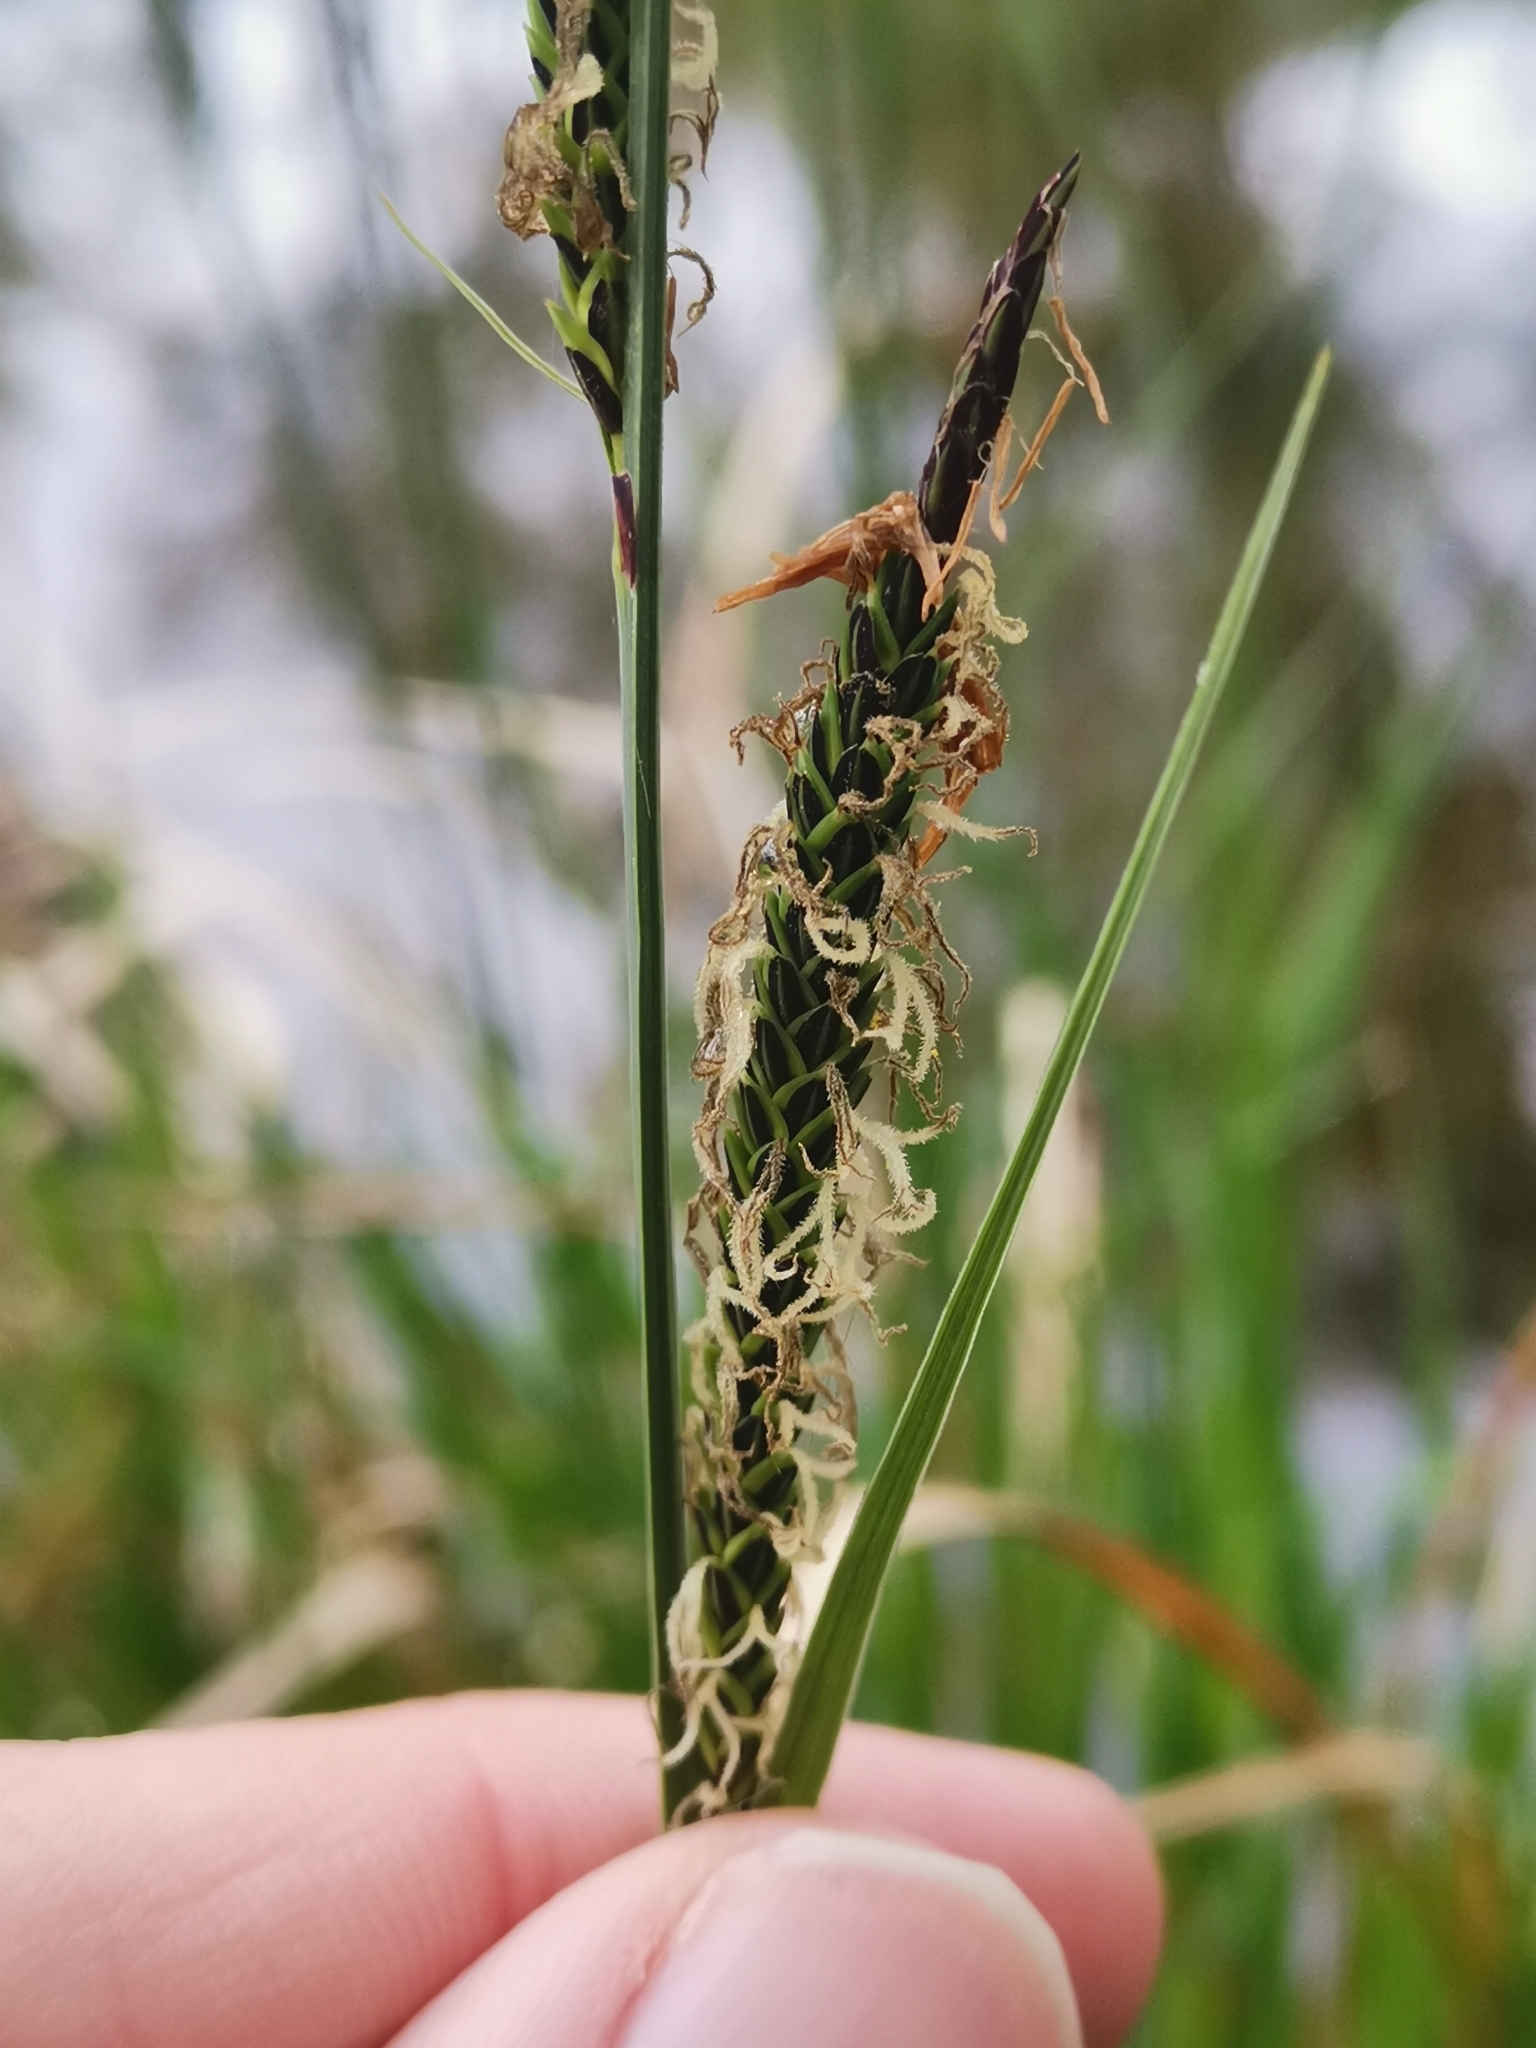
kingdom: Plantae
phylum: Tracheophyta
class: Liliopsida
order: Poales
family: Cyperaceae
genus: Carex
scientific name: Carex elata
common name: Tufted sedge
